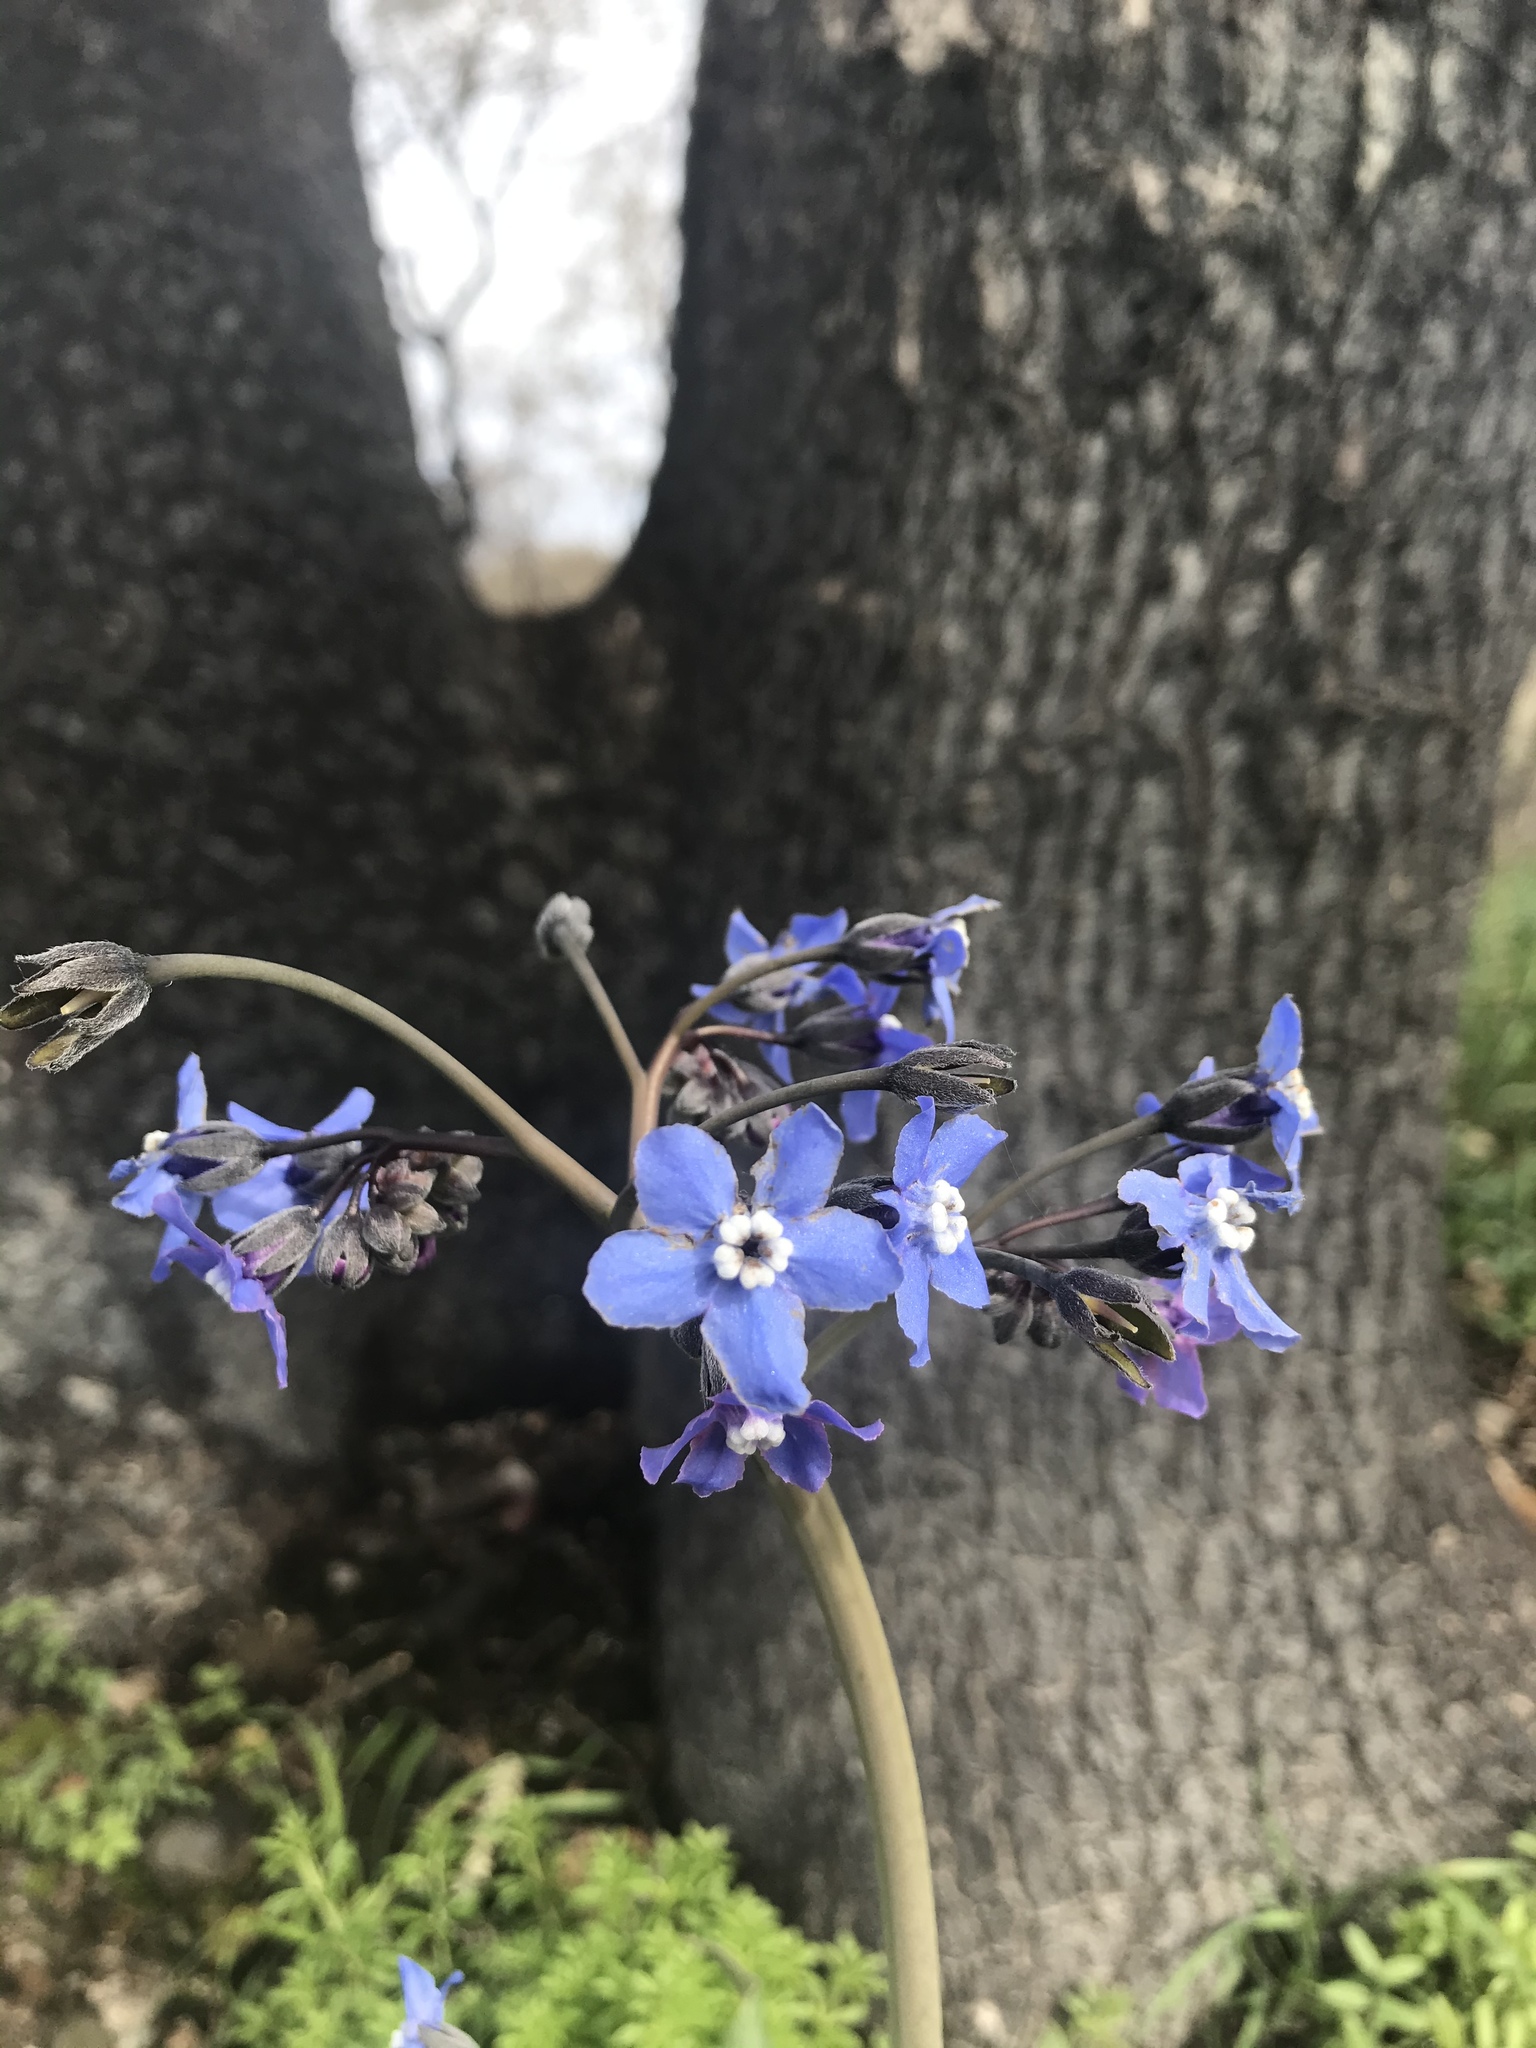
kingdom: Plantae
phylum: Tracheophyta
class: Magnoliopsida
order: Boraginales
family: Boraginaceae
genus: Adelinia
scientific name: Adelinia grande
